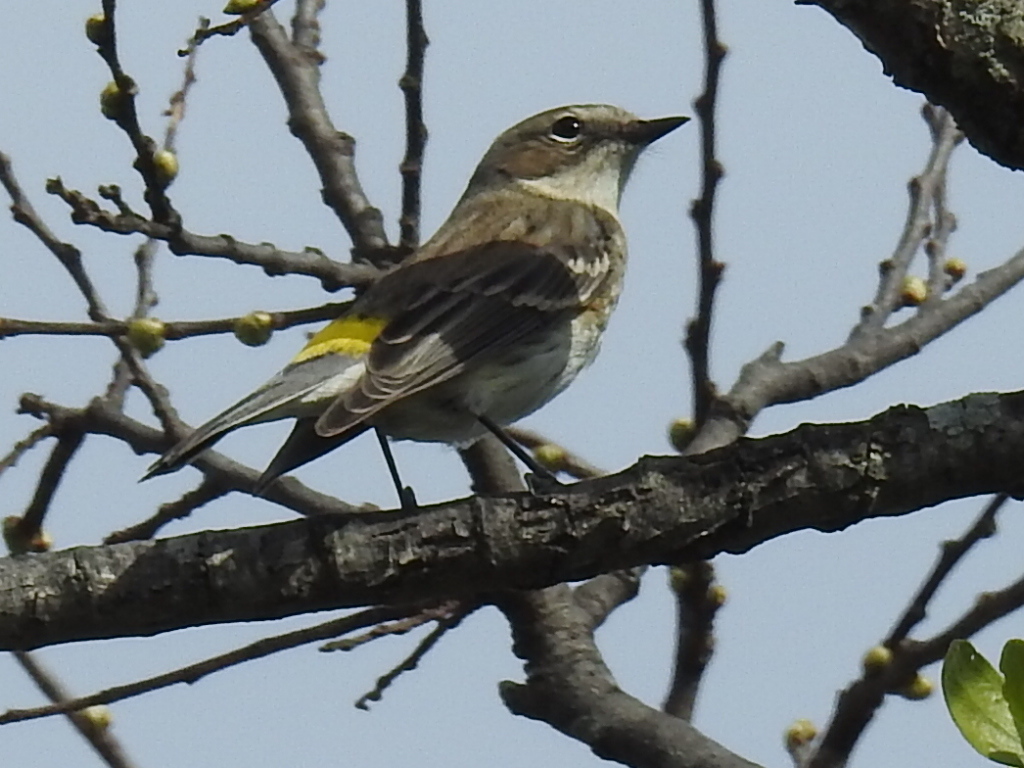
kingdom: Animalia
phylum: Chordata
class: Aves
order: Passeriformes
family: Parulidae
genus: Setophaga
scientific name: Setophaga coronata
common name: Myrtle warbler
